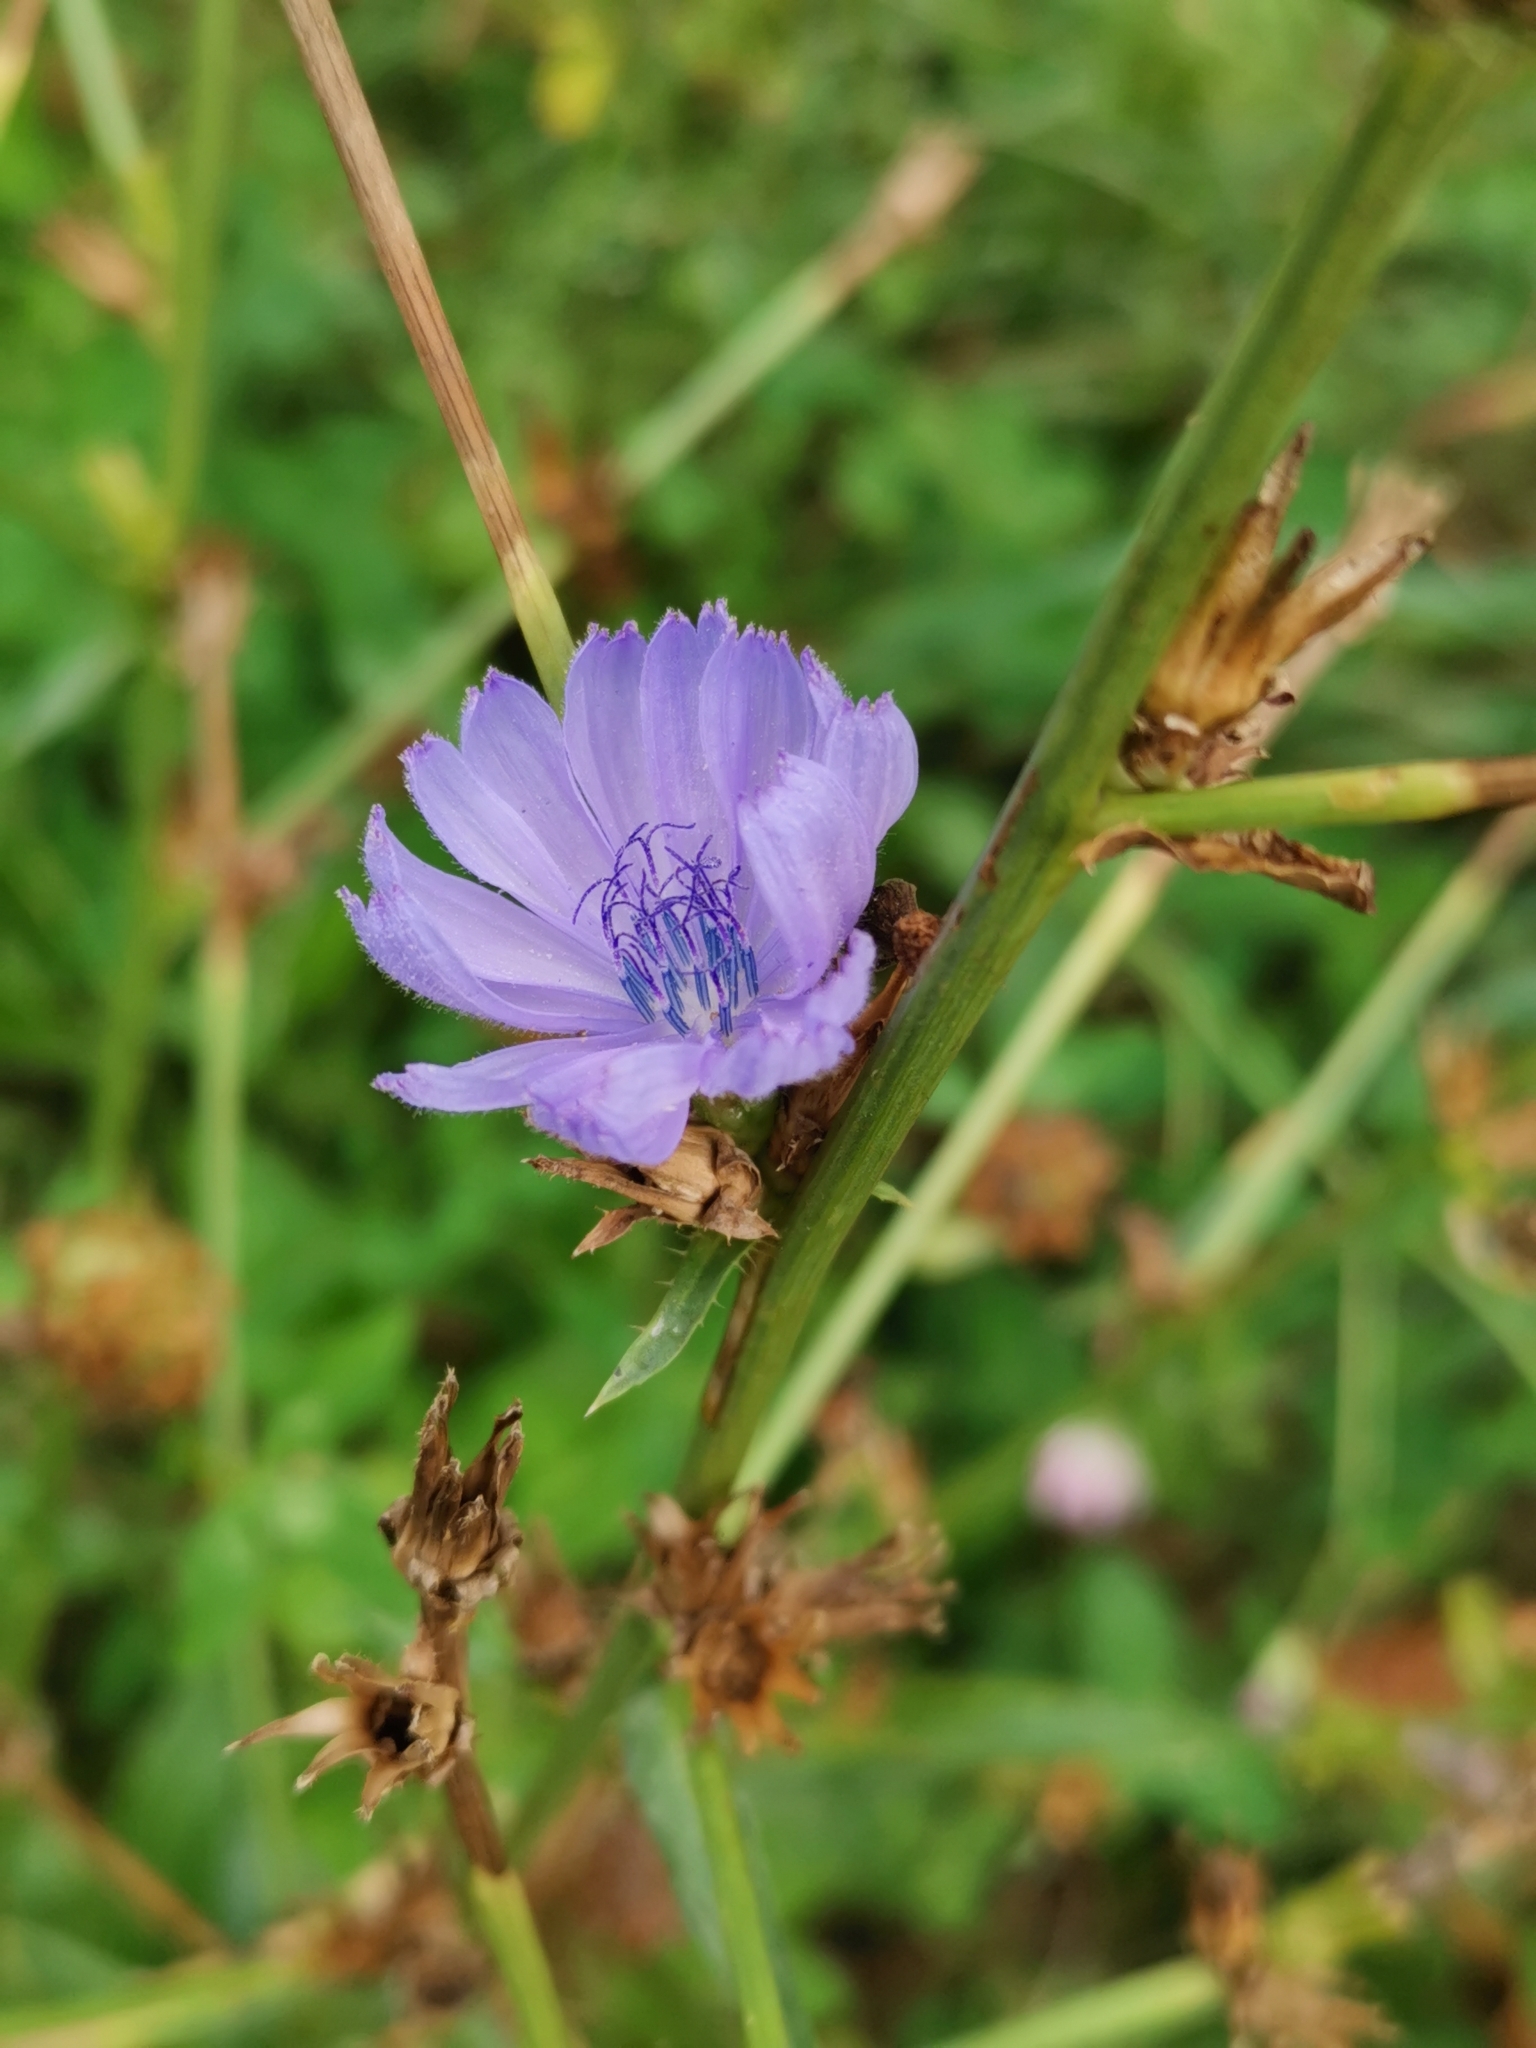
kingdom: Plantae
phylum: Tracheophyta
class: Magnoliopsida
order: Asterales
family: Asteraceae
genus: Cichorium
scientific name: Cichorium intybus
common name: Chicory
